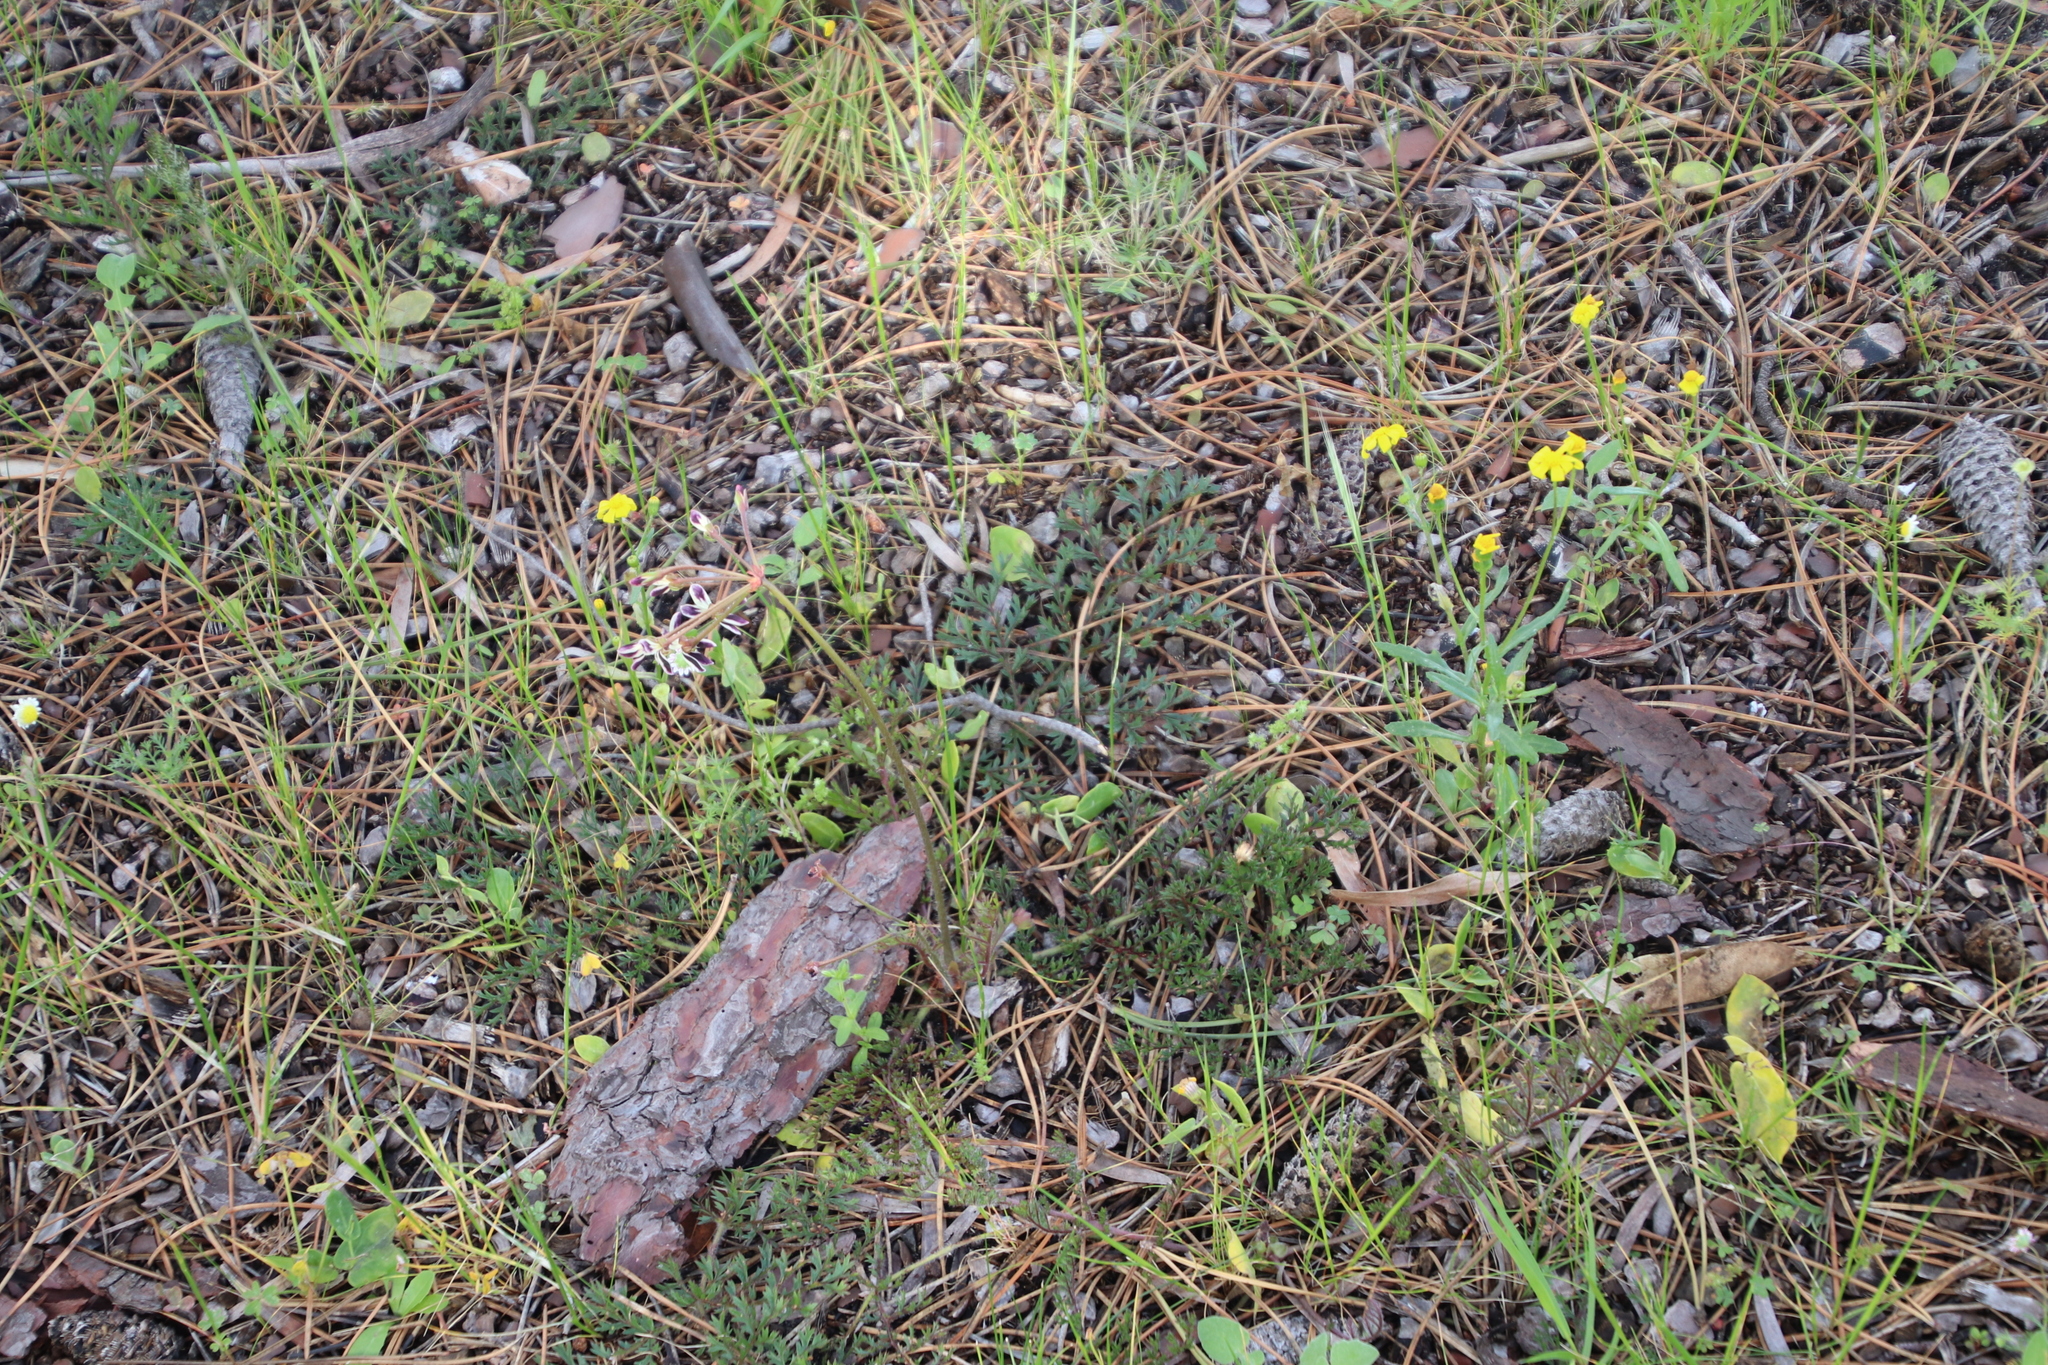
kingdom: Plantae
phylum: Tracheophyta
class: Magnoliopsida
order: Geraniales
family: Geraniaceae
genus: Pelargonium
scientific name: Pelargonium triste
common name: Night-scent pelargonium
